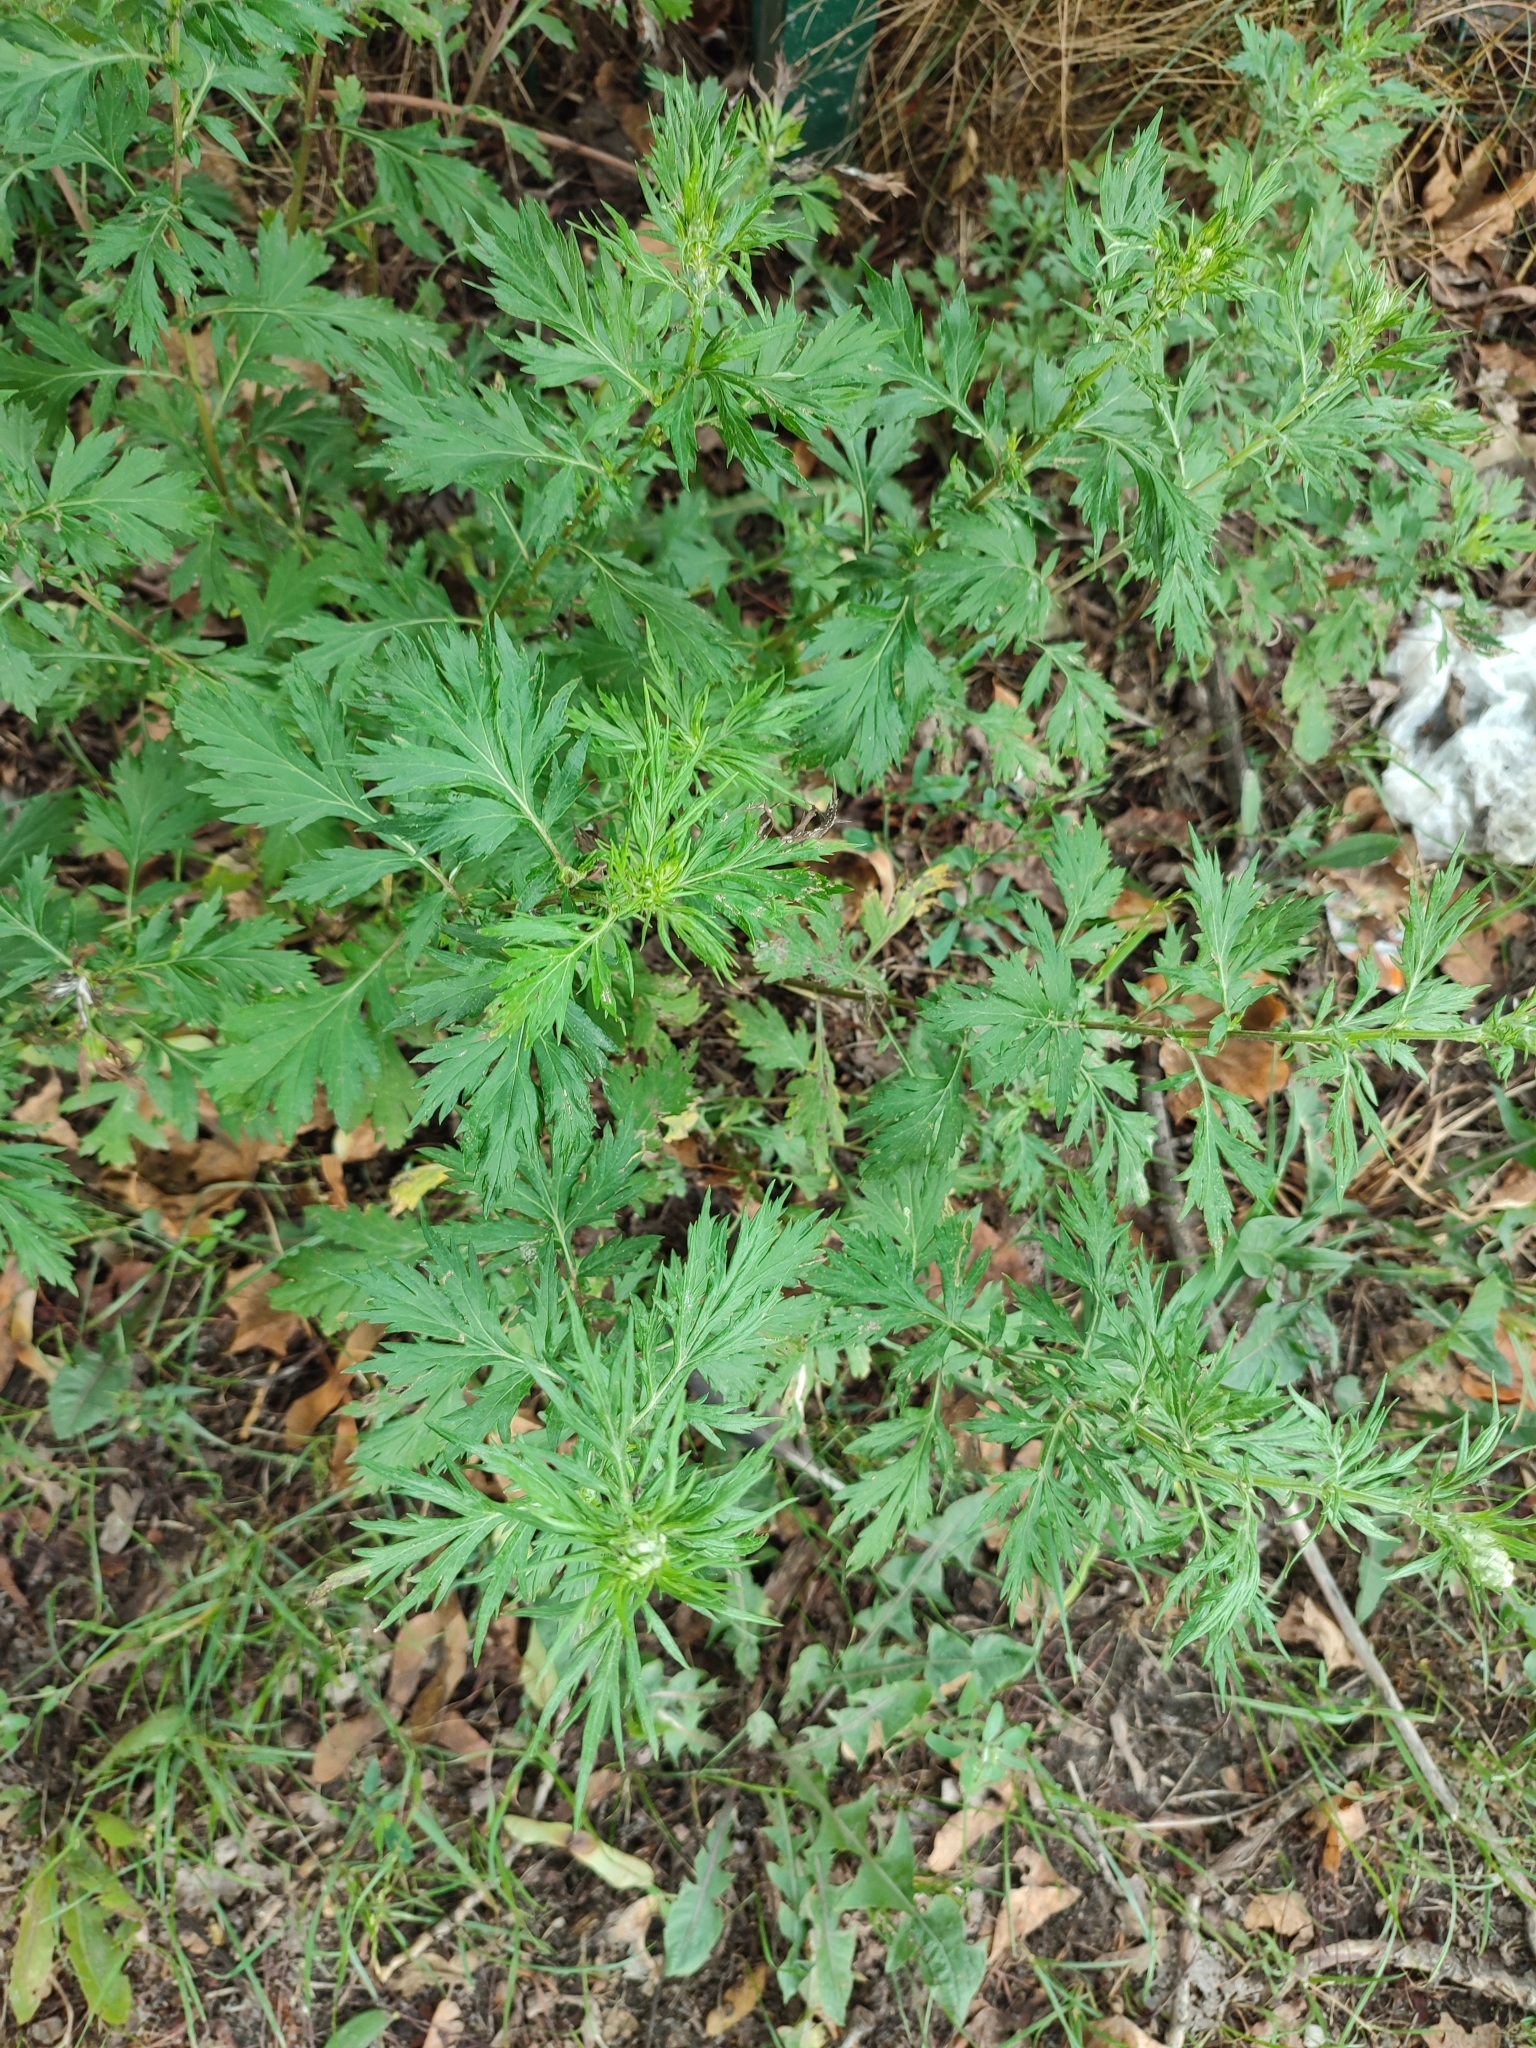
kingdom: Plantae
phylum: Tracheophyta
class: Magnoliopsida
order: Asterales
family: Asteraceae
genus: Artemisia
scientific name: Artemisia vulgaris
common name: Mugwort
